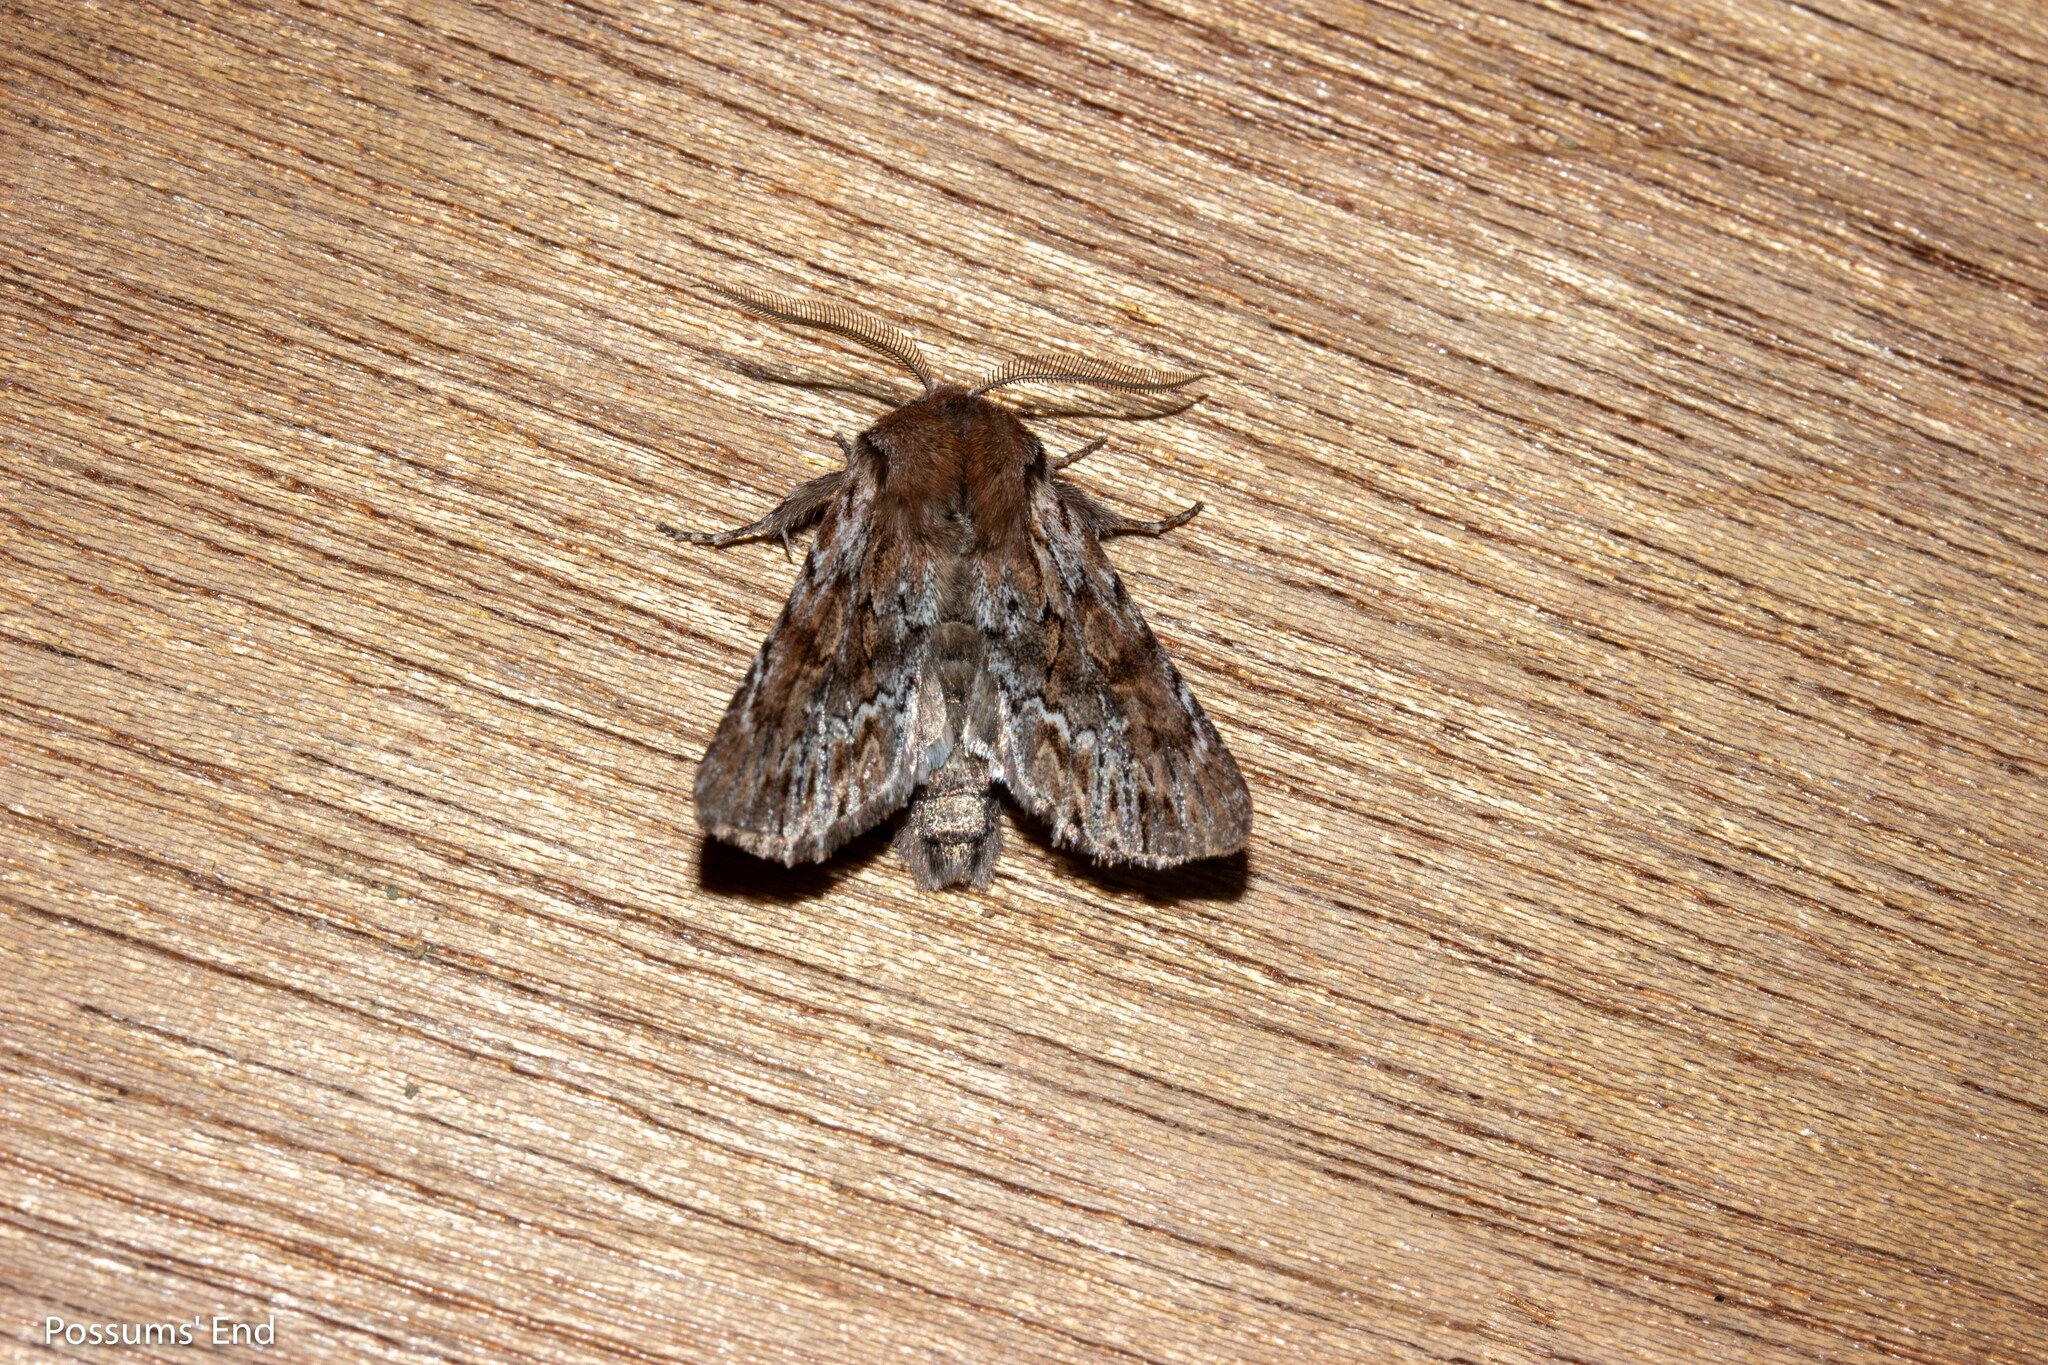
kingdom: Animalia
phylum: Arthropoda
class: Insecta
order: Lepidoptera
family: Noctuidae
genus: Ichneutica
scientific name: Ichneutica marmorata
